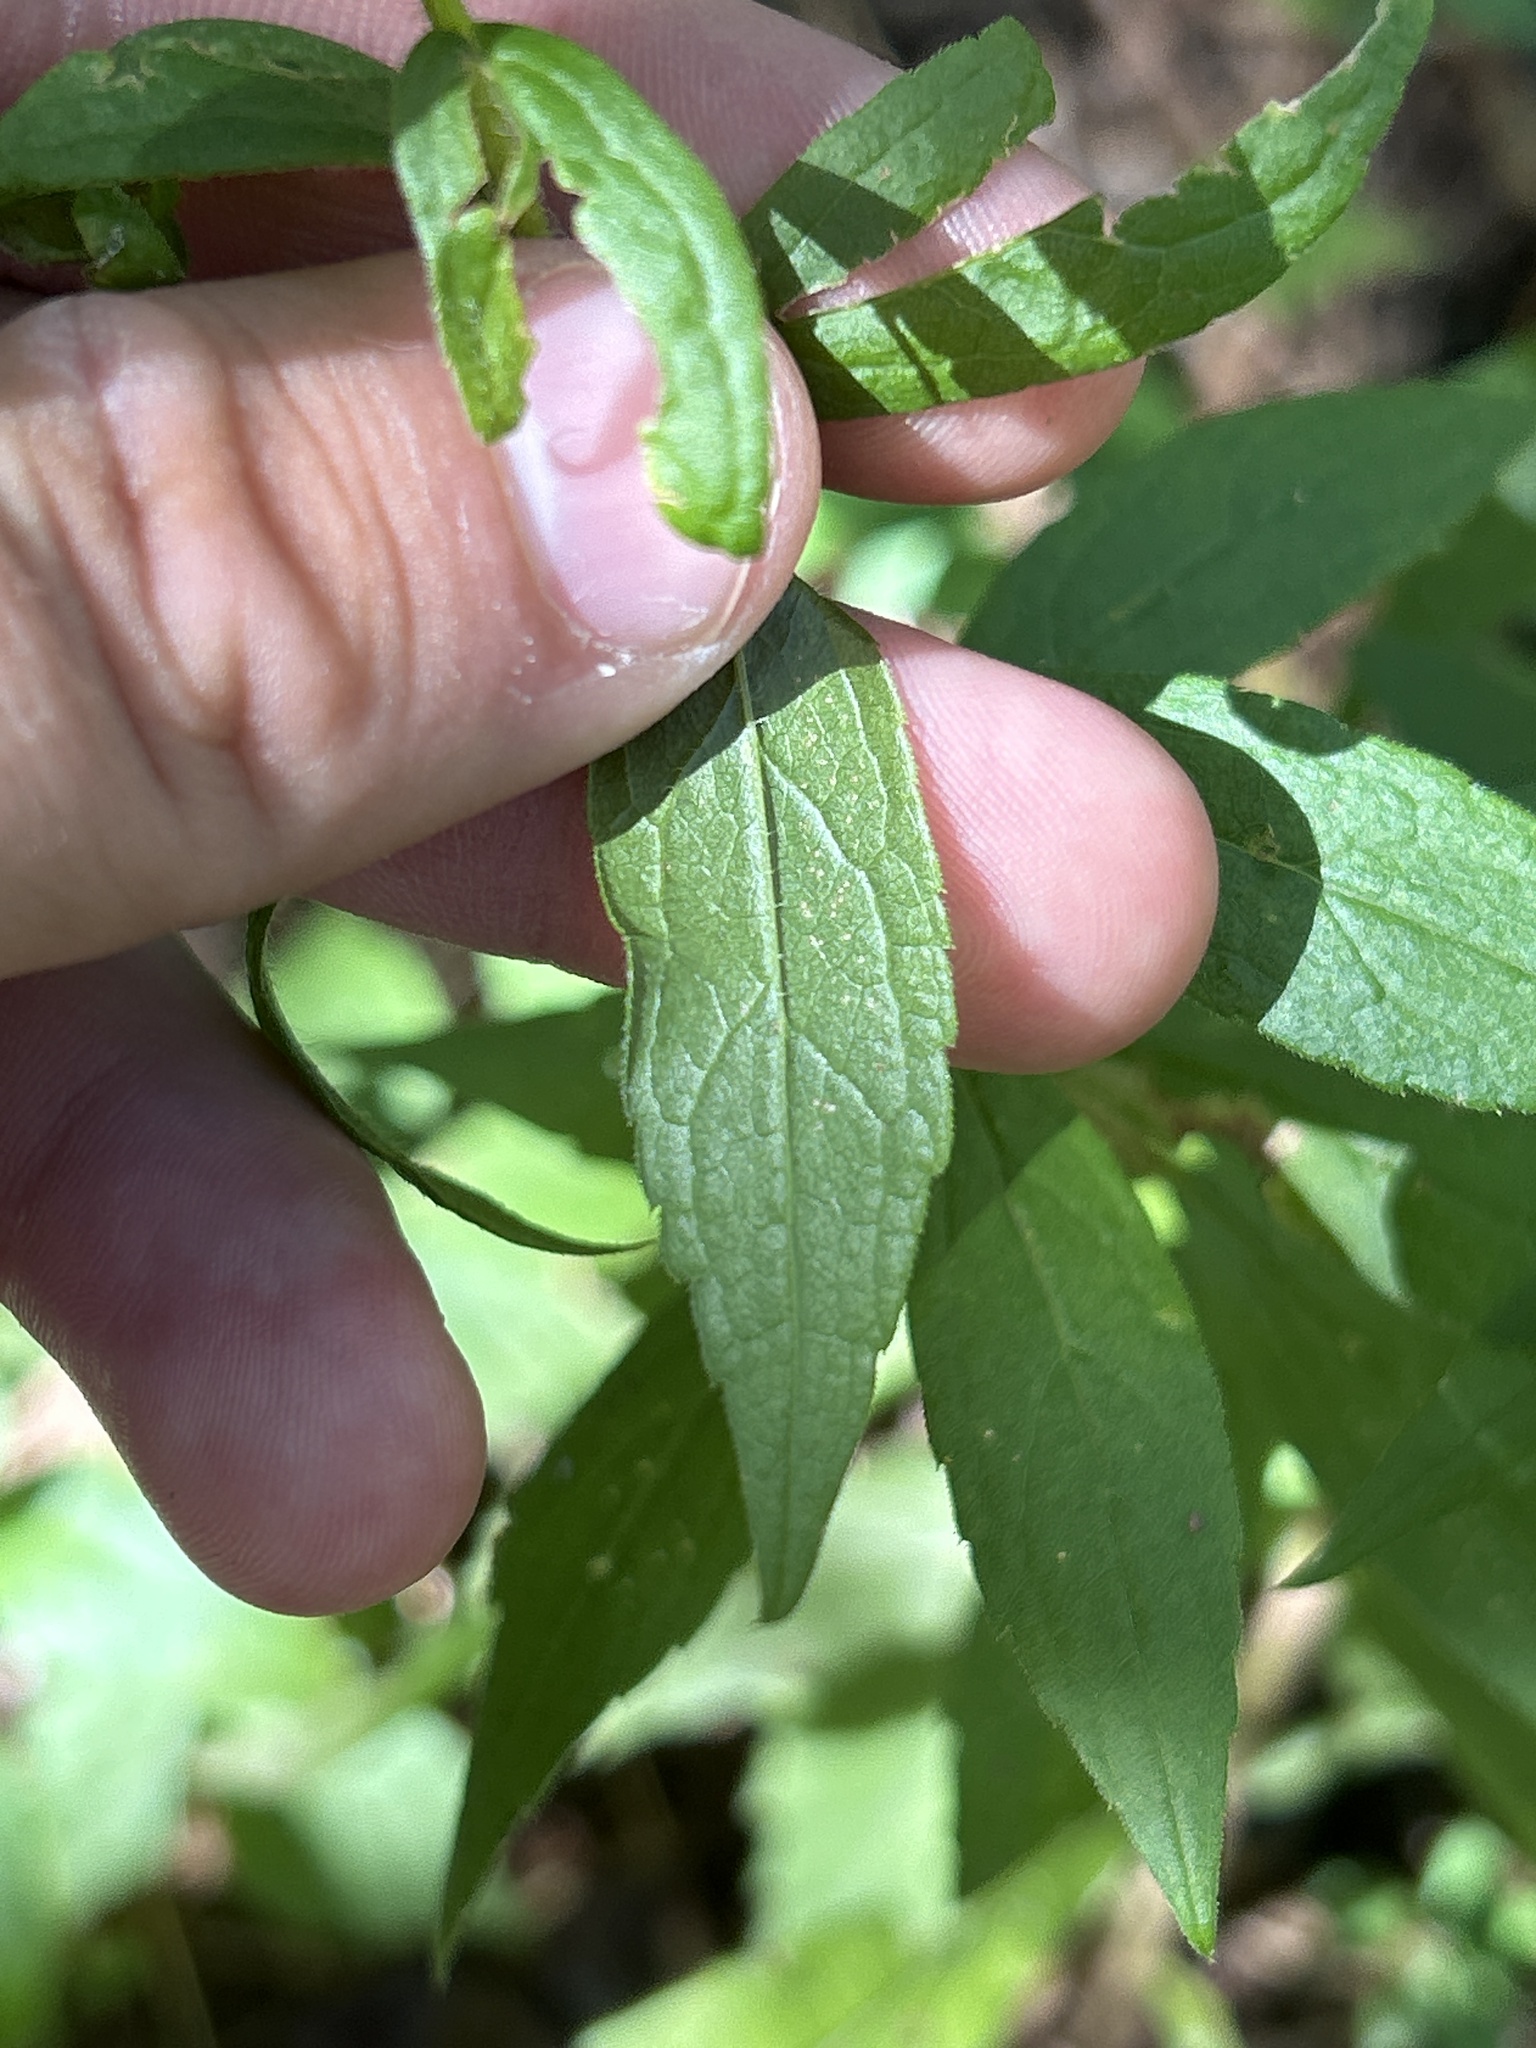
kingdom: Plantae
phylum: Tracheophyta
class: Magnoliopsida
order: Asterales
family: Asteraceae
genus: Solidago
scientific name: Solidago rugosa
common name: Rough-stemmed goldenrod
